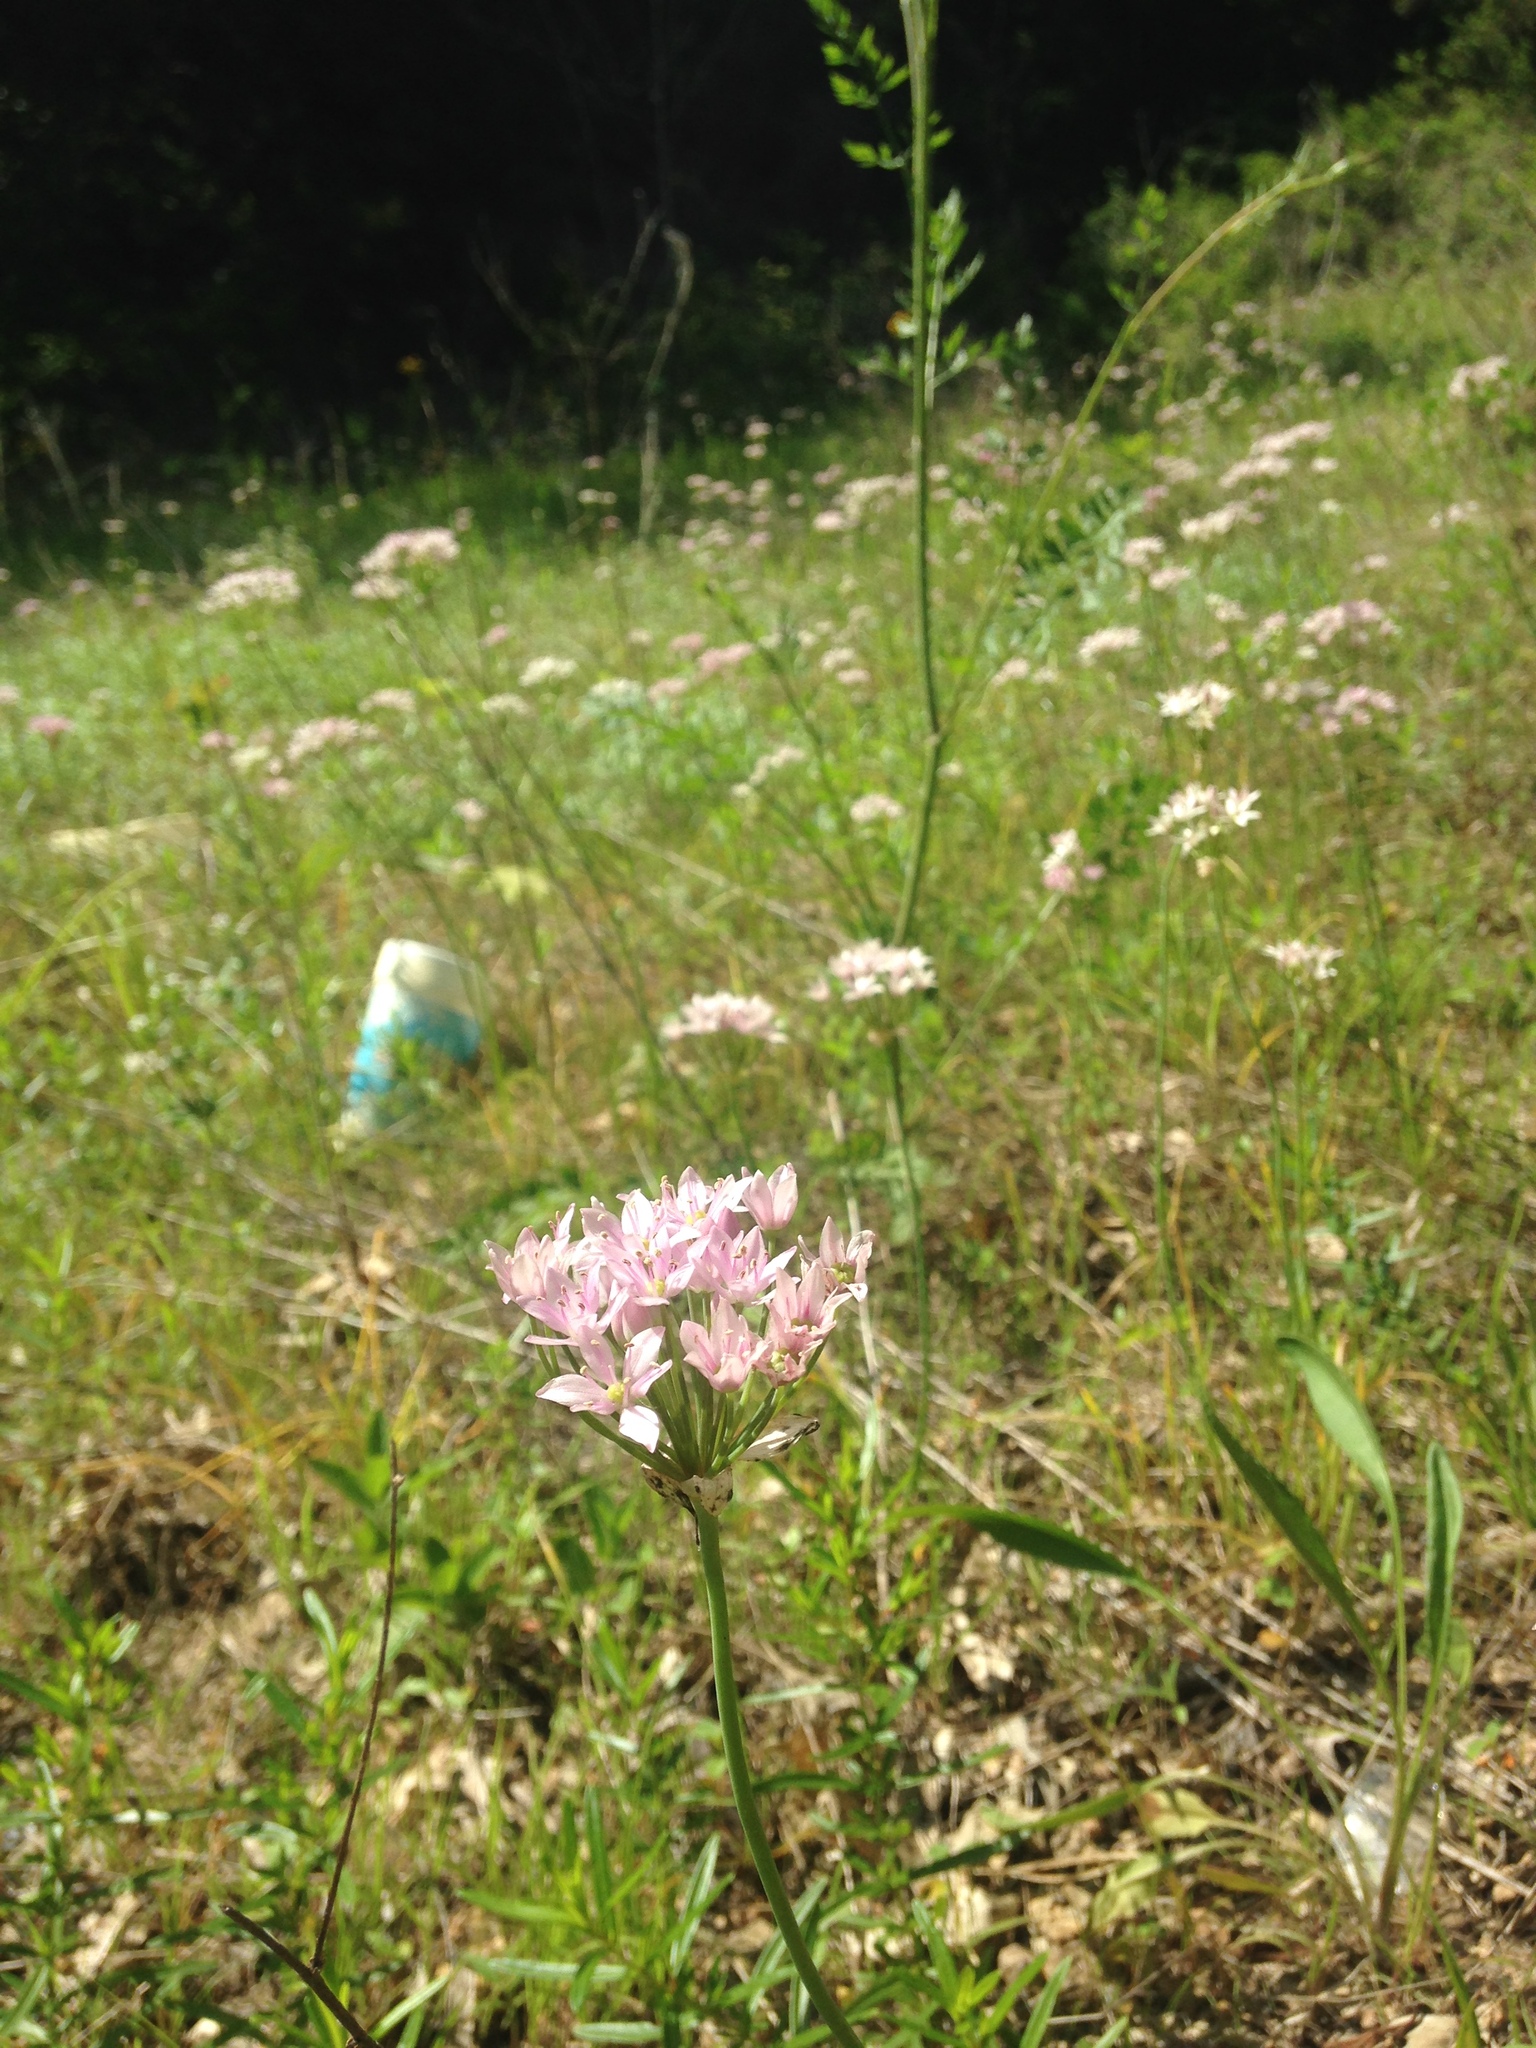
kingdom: Plantae
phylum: Tracheophyta
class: Liliopsida
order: Asparagales
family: Amaryllidaceae
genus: Allium
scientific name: Allium canadense
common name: Meadow garlic
